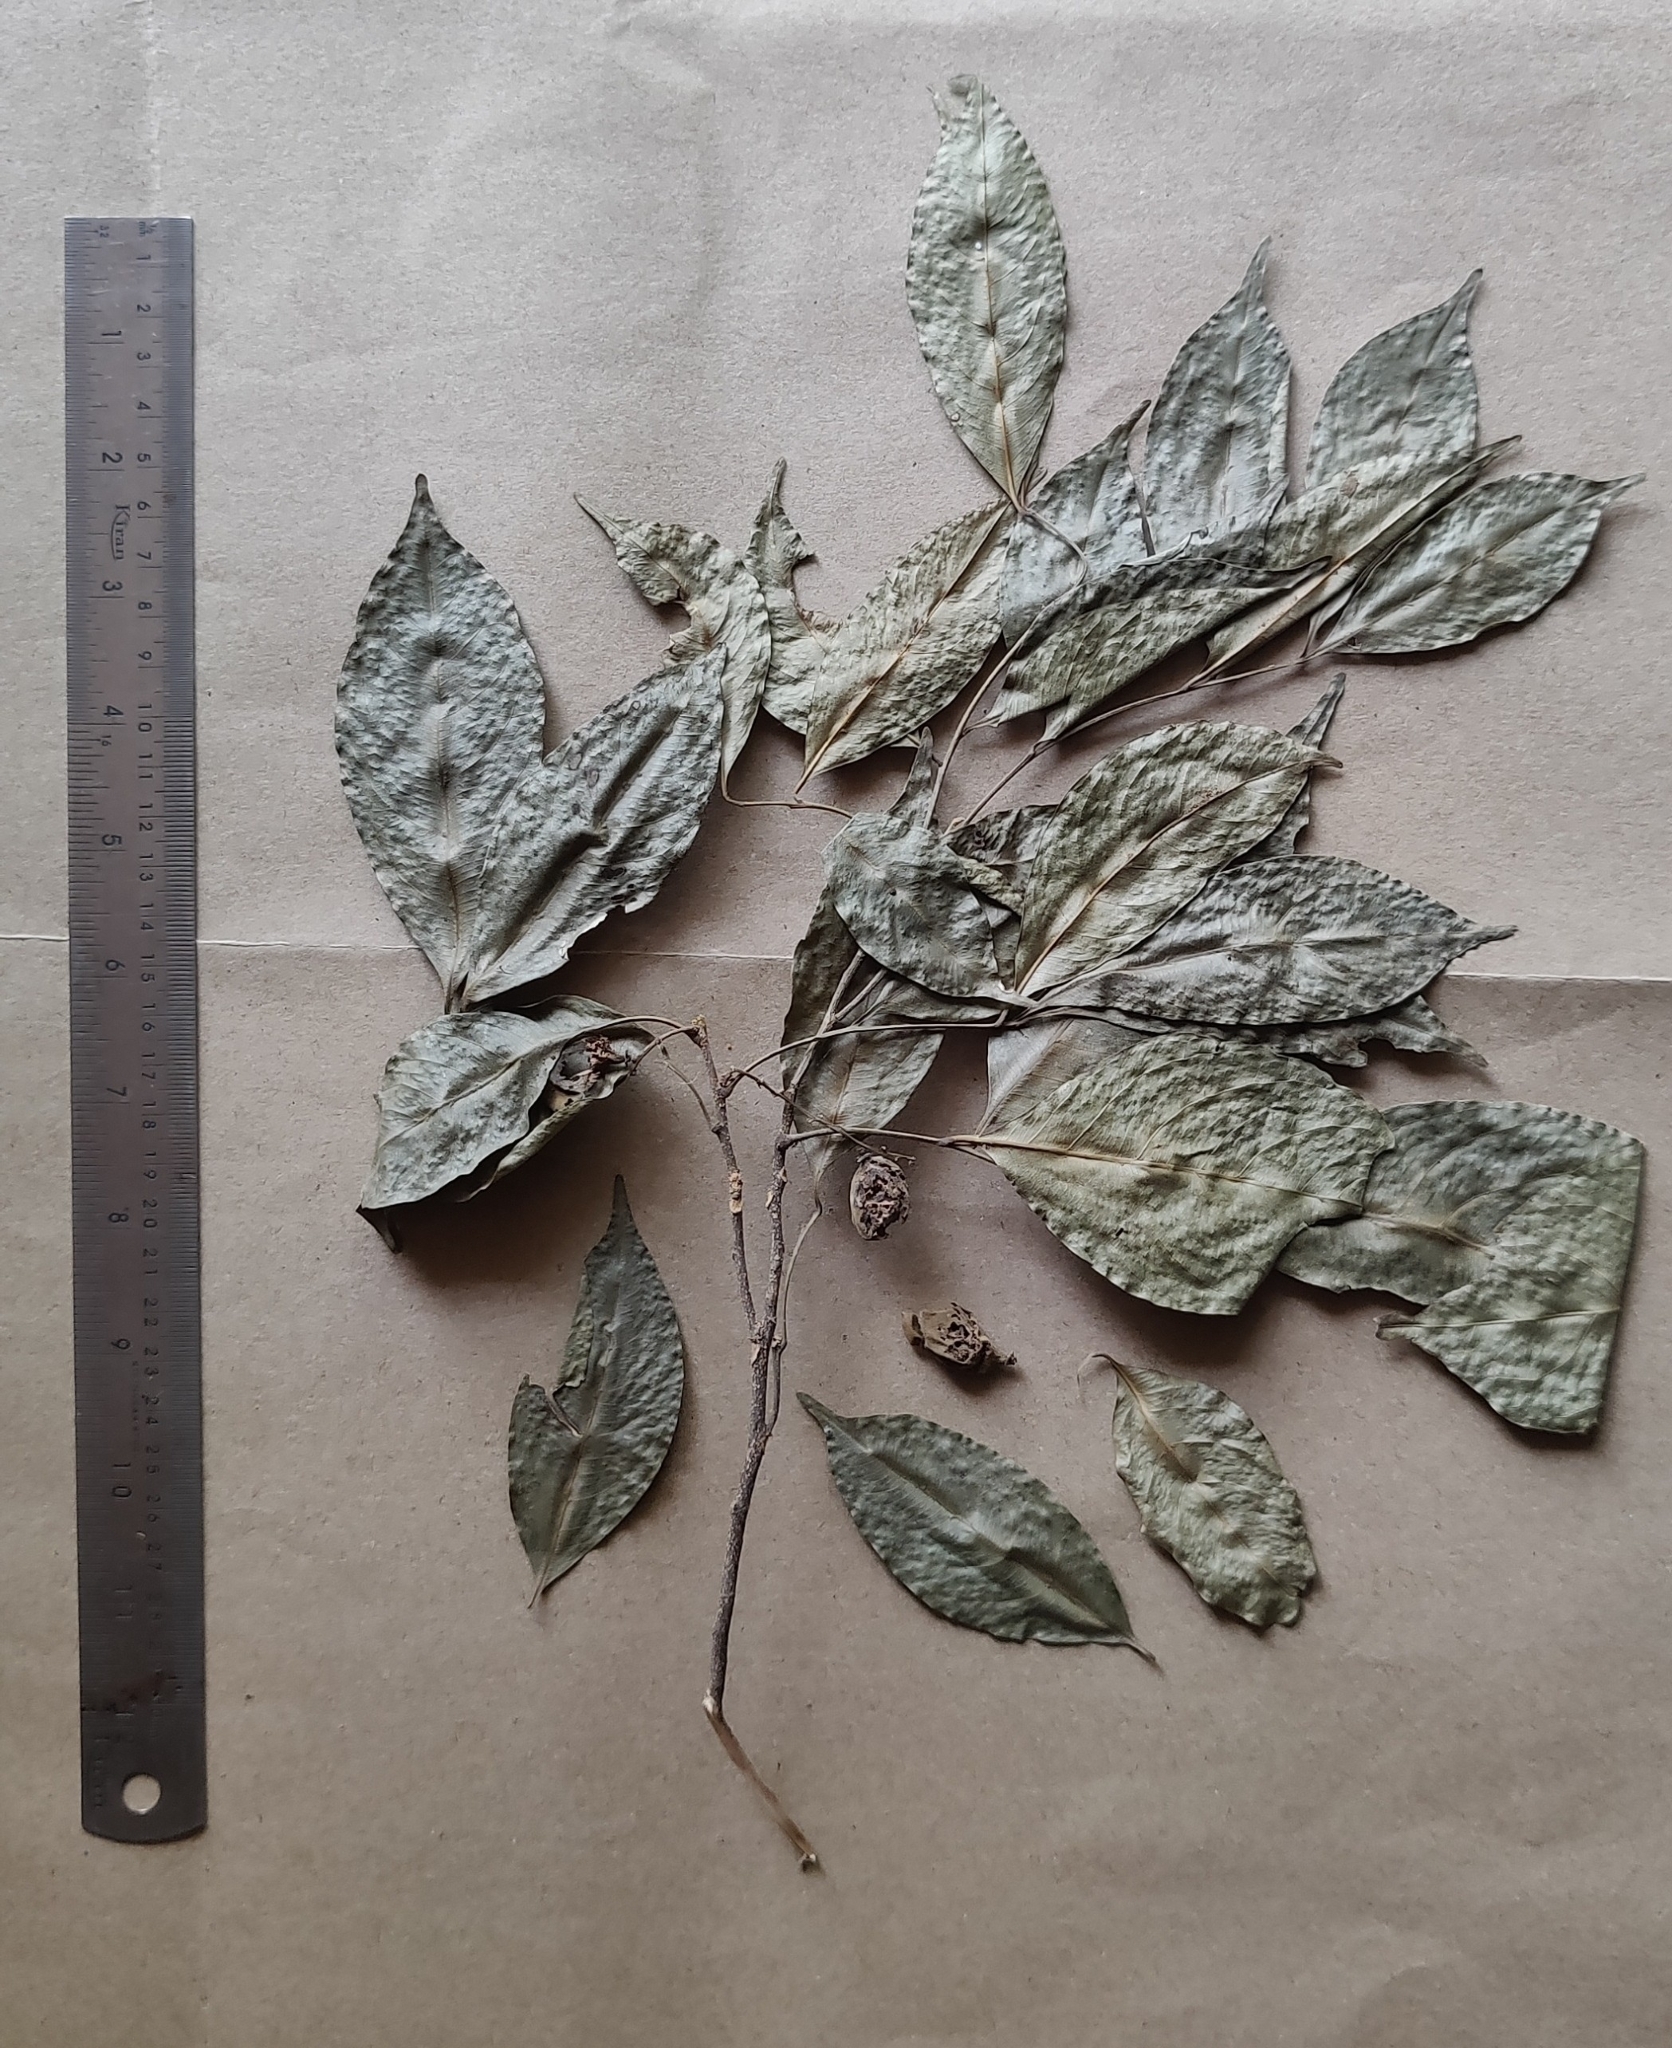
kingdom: Plantae
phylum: Tracheophyta
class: Magnoliopsida
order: Sapindales
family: Meliaceae
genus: Reinwardtiodendron
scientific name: Reinwardtiodendron anamalaiense
